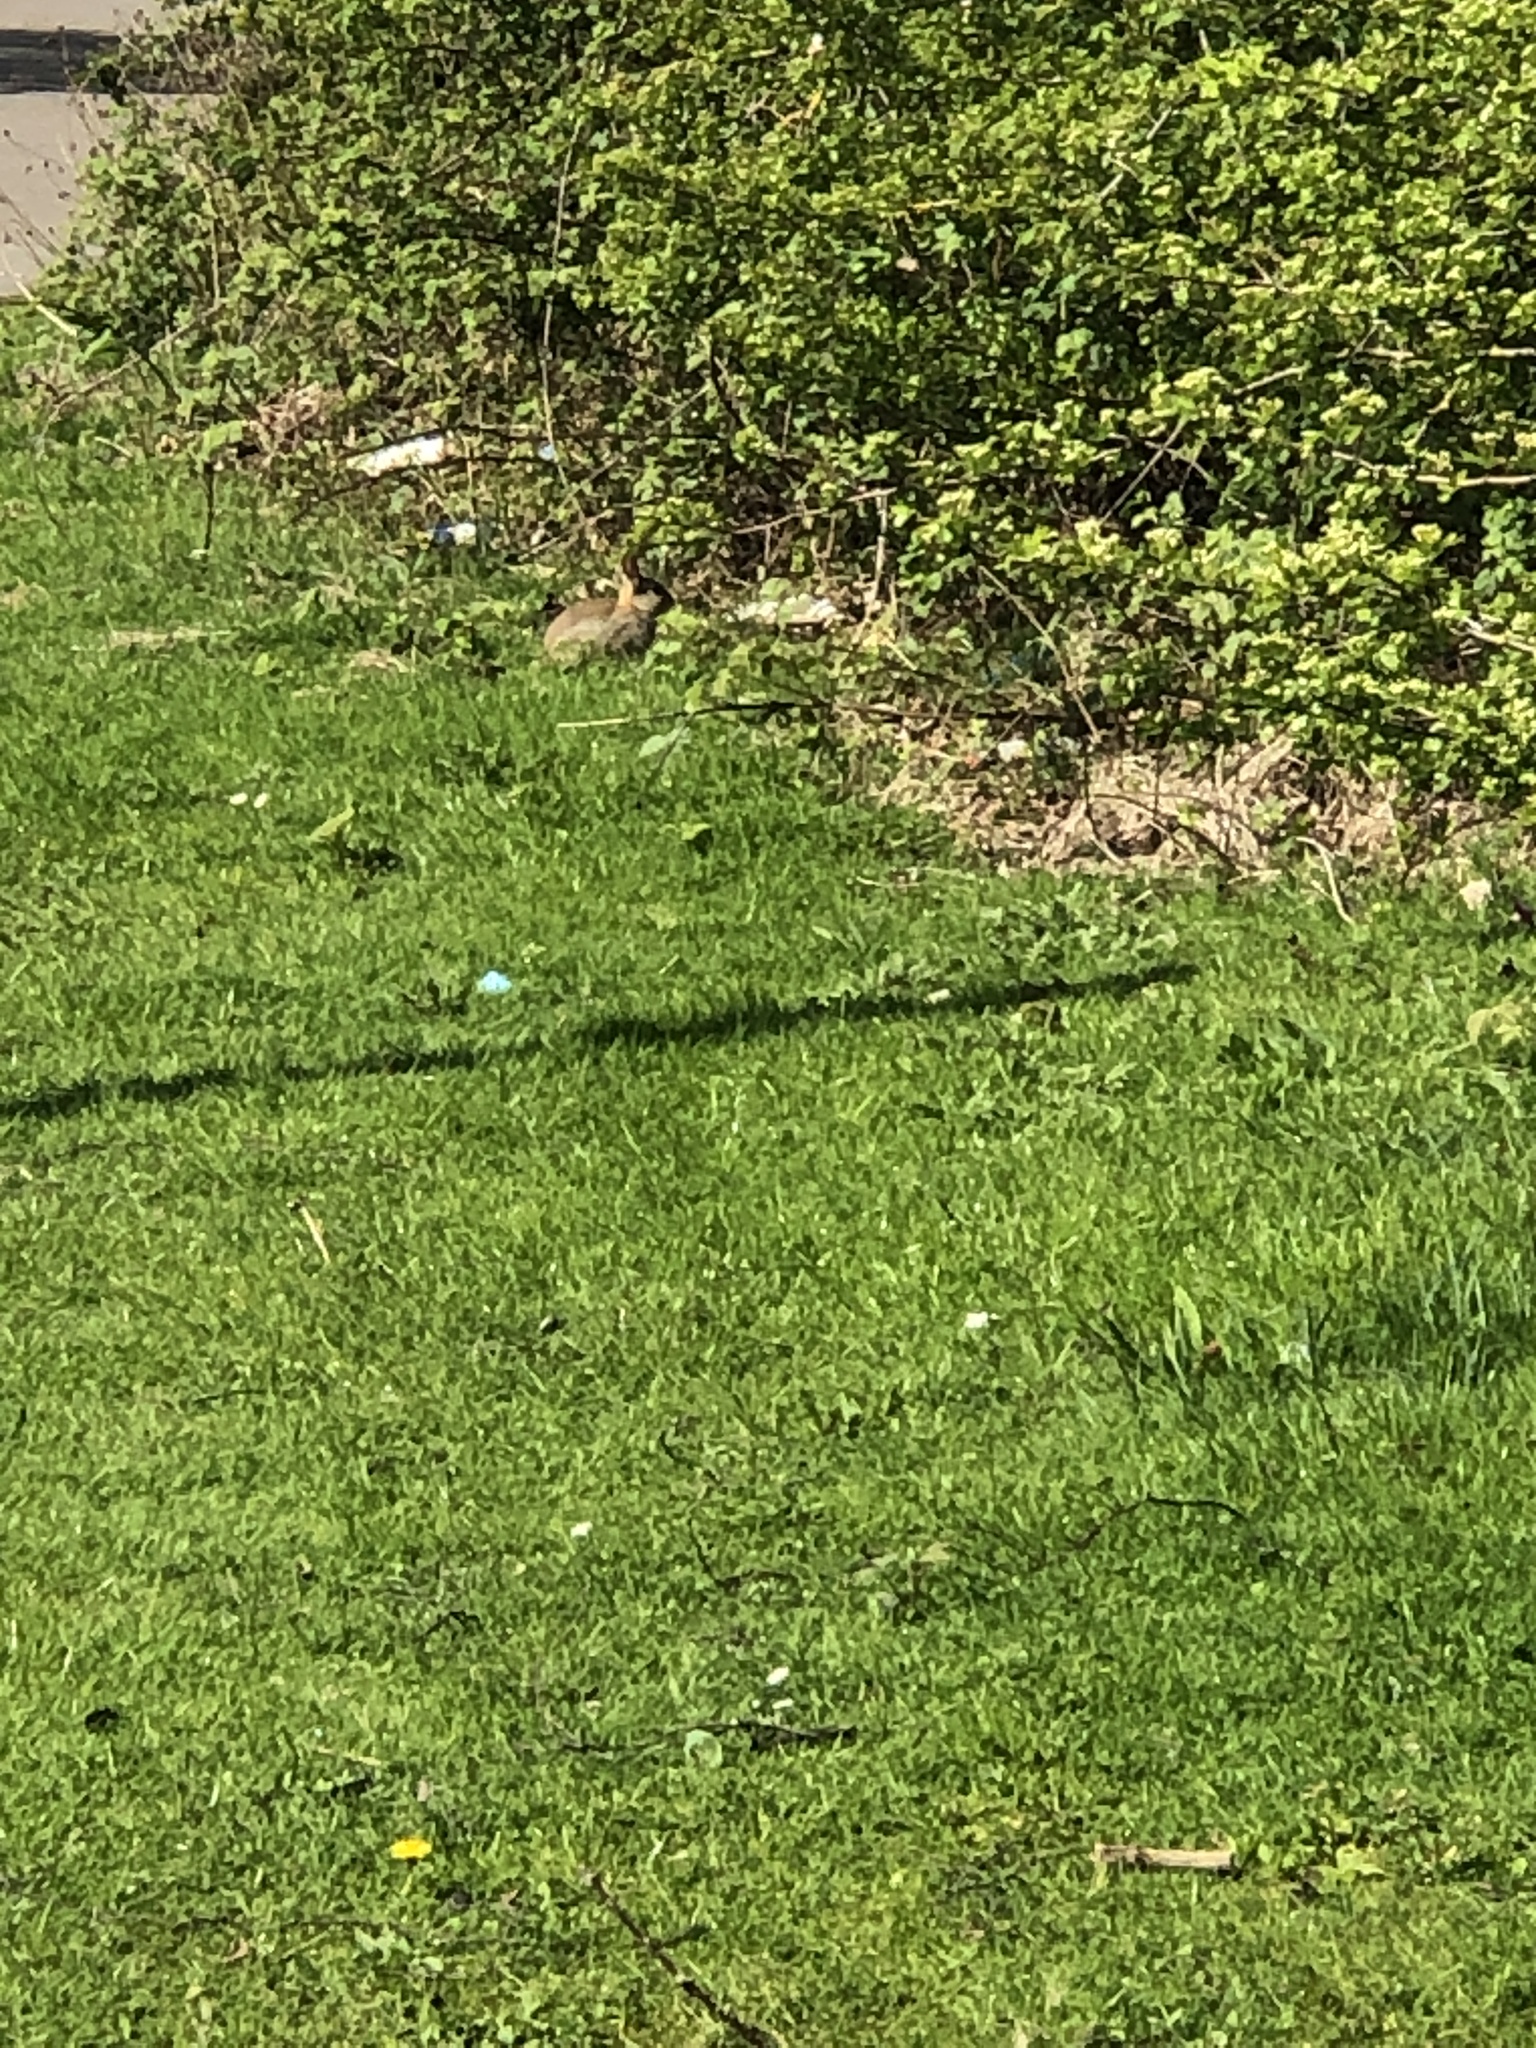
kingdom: Animalia
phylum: Chordata
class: Mammalia
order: Lagomorpha
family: Leporidae
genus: Oryctolagus
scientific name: Oryctolagus cuniculus
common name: European rabbit
